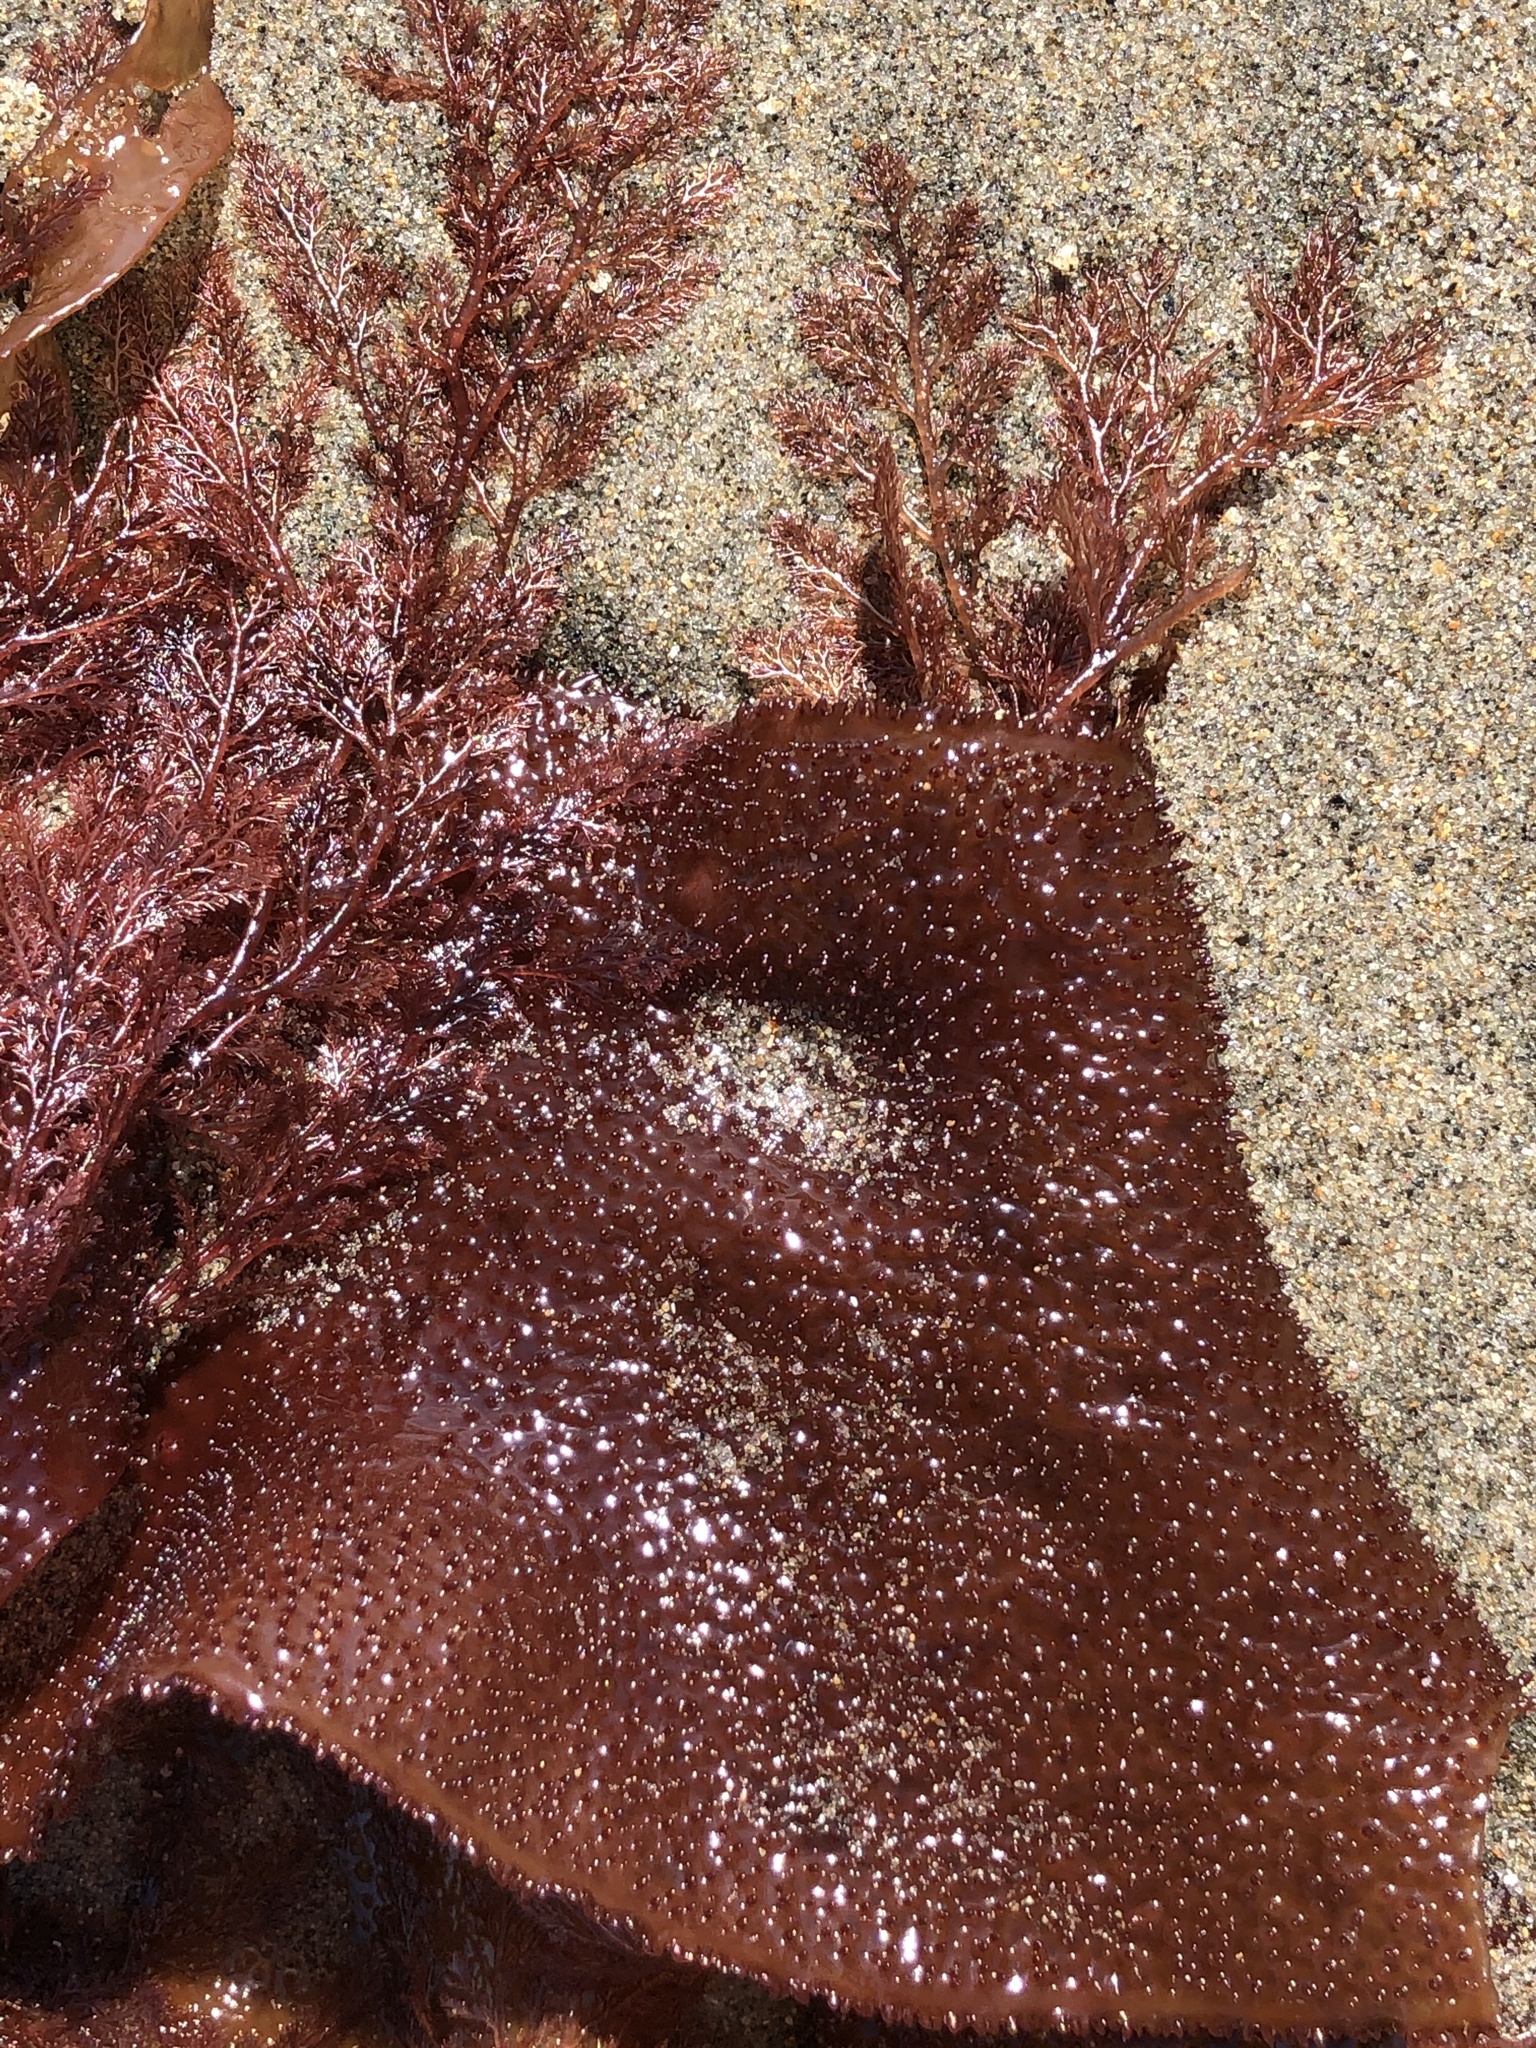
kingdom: Plantae
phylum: Rhodophyta
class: Florideophyceae
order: Gigartinales
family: Gigartinaceae
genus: Chondracanthus
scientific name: Chondracanthus exasperatus
